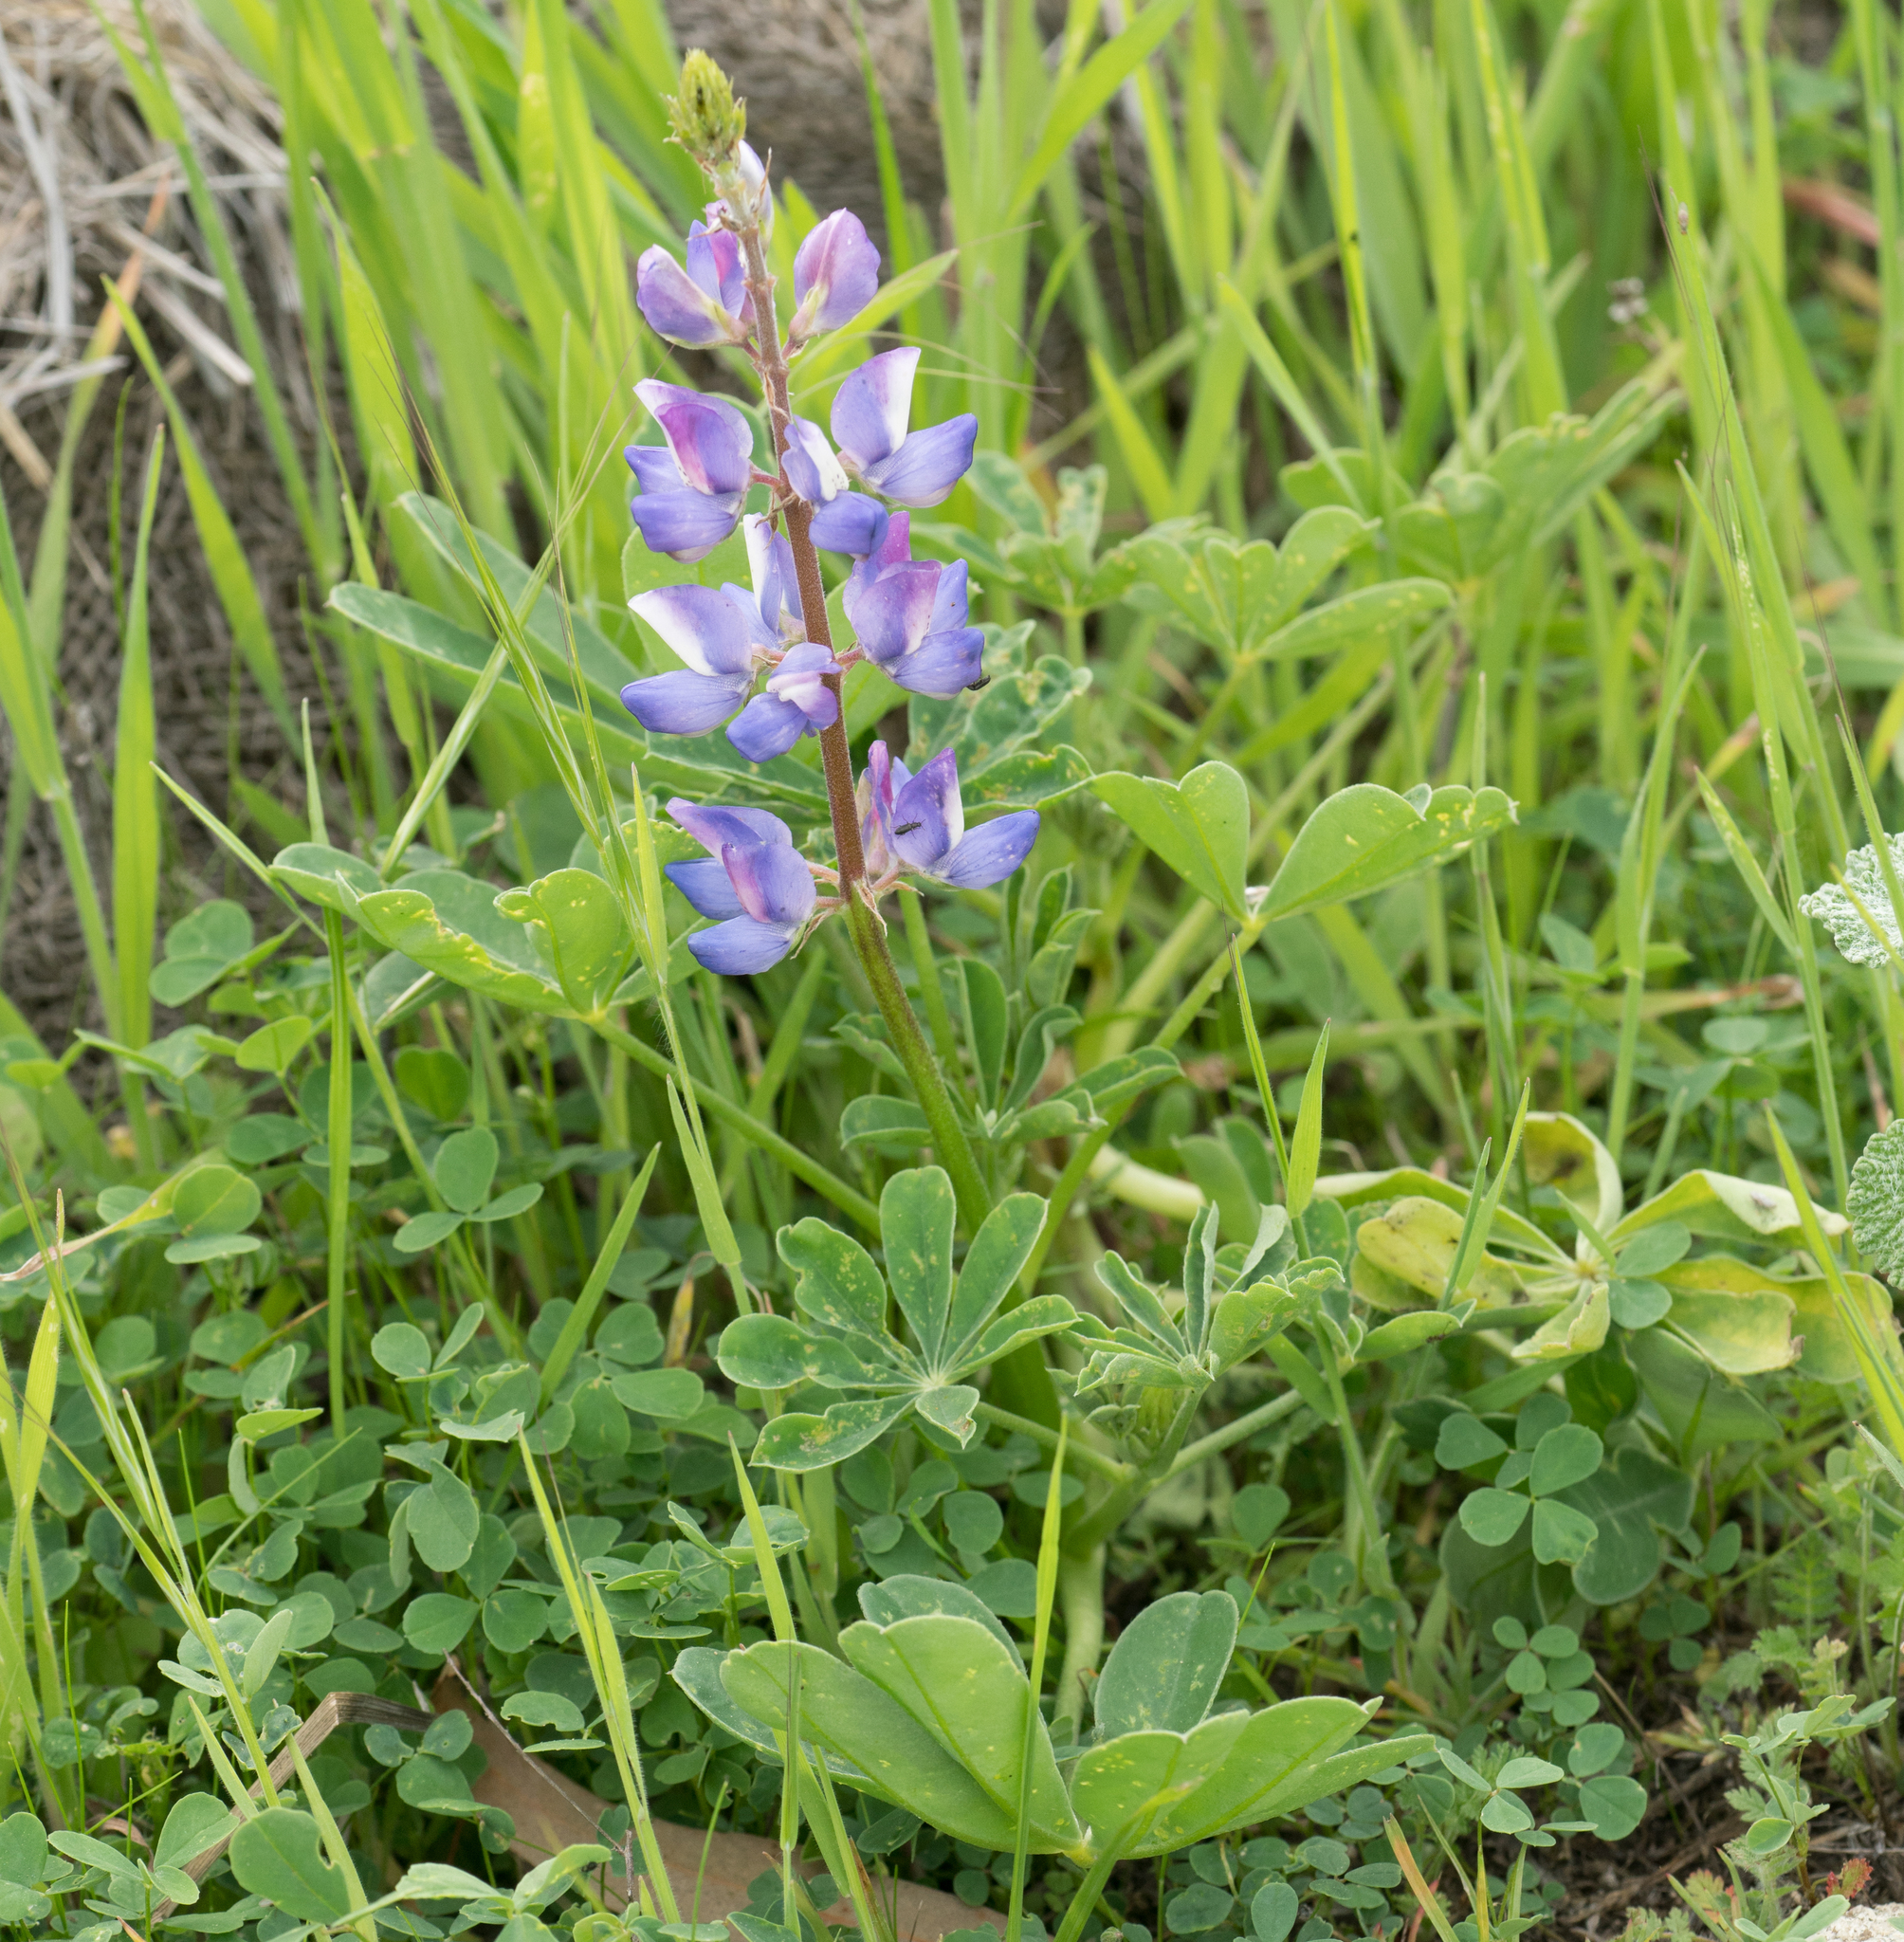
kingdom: Plantae
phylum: Tracheophyta
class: Magnoliopsida
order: Fabales
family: Fabaceae
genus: Lupinus
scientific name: Lupinus succulentus
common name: Arroyo lupine
